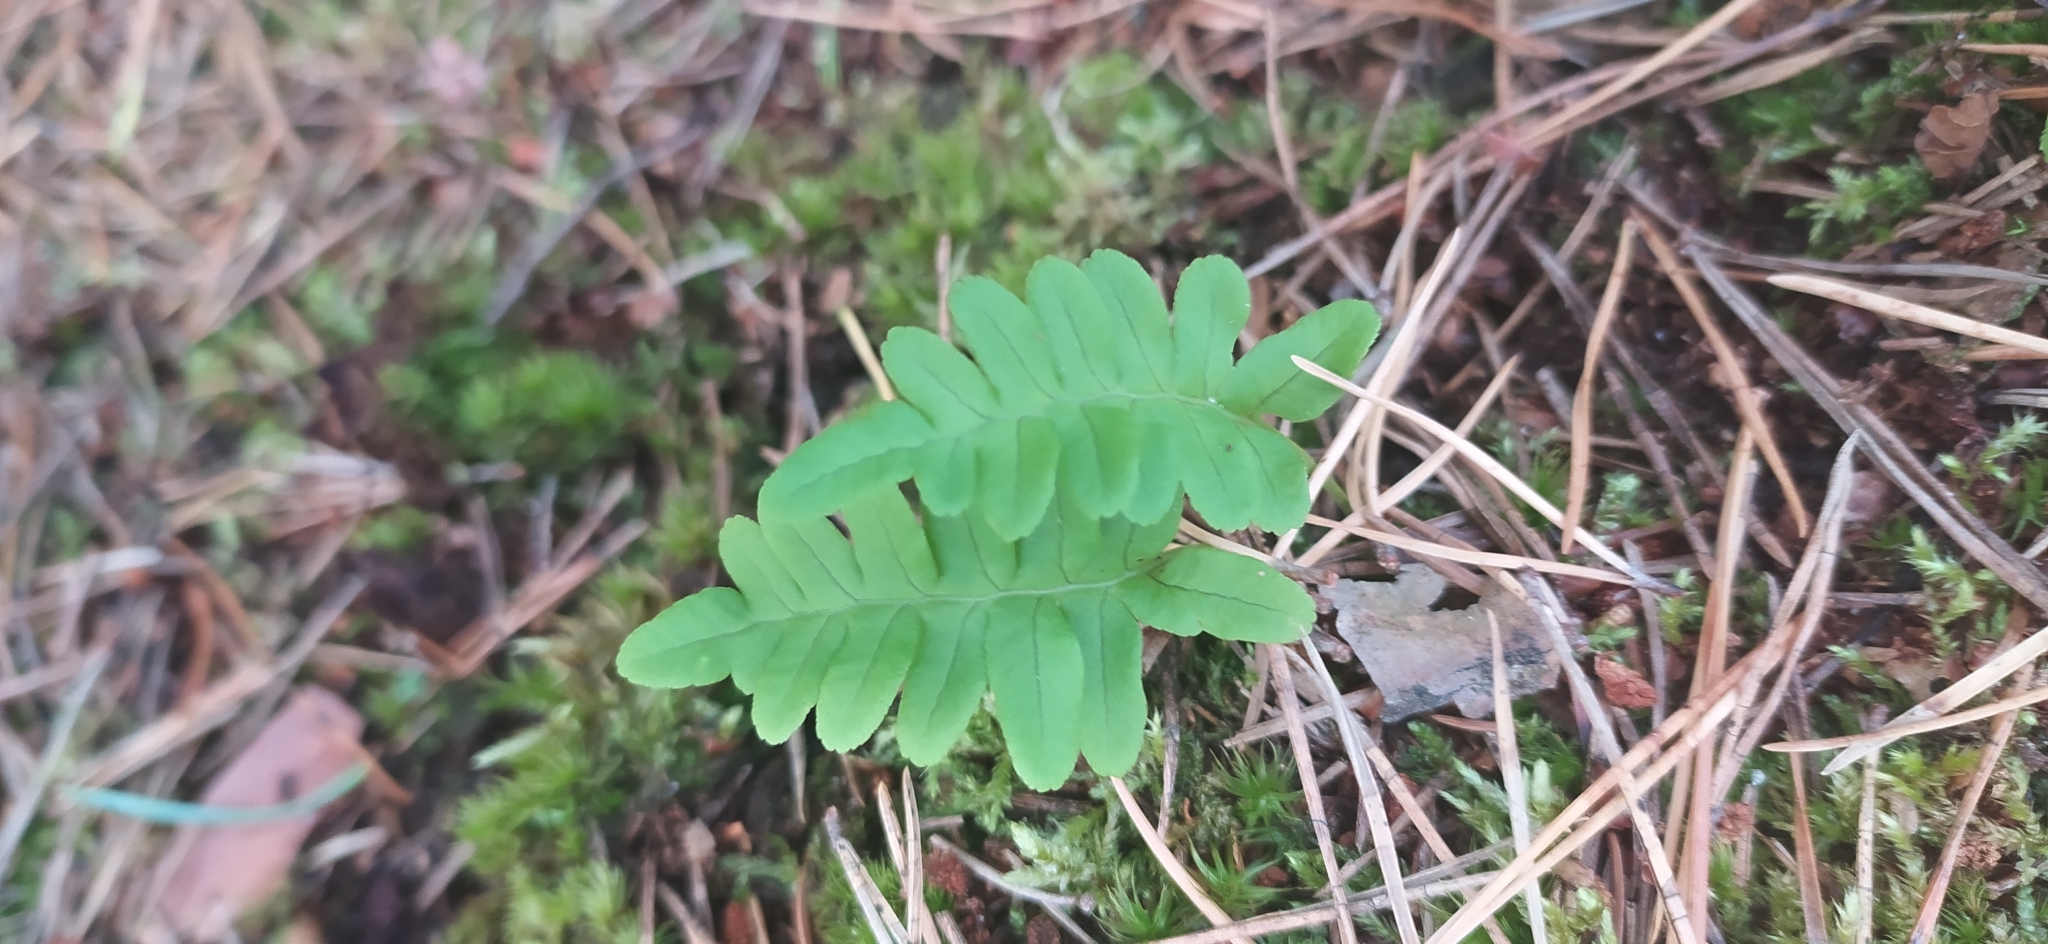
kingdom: Plantae
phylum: Tracheophyta
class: Polypodiopsida
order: Polypodiales
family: Polypodiaceae
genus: Polypodium
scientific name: Polypodium vulgare
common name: Common polypody
